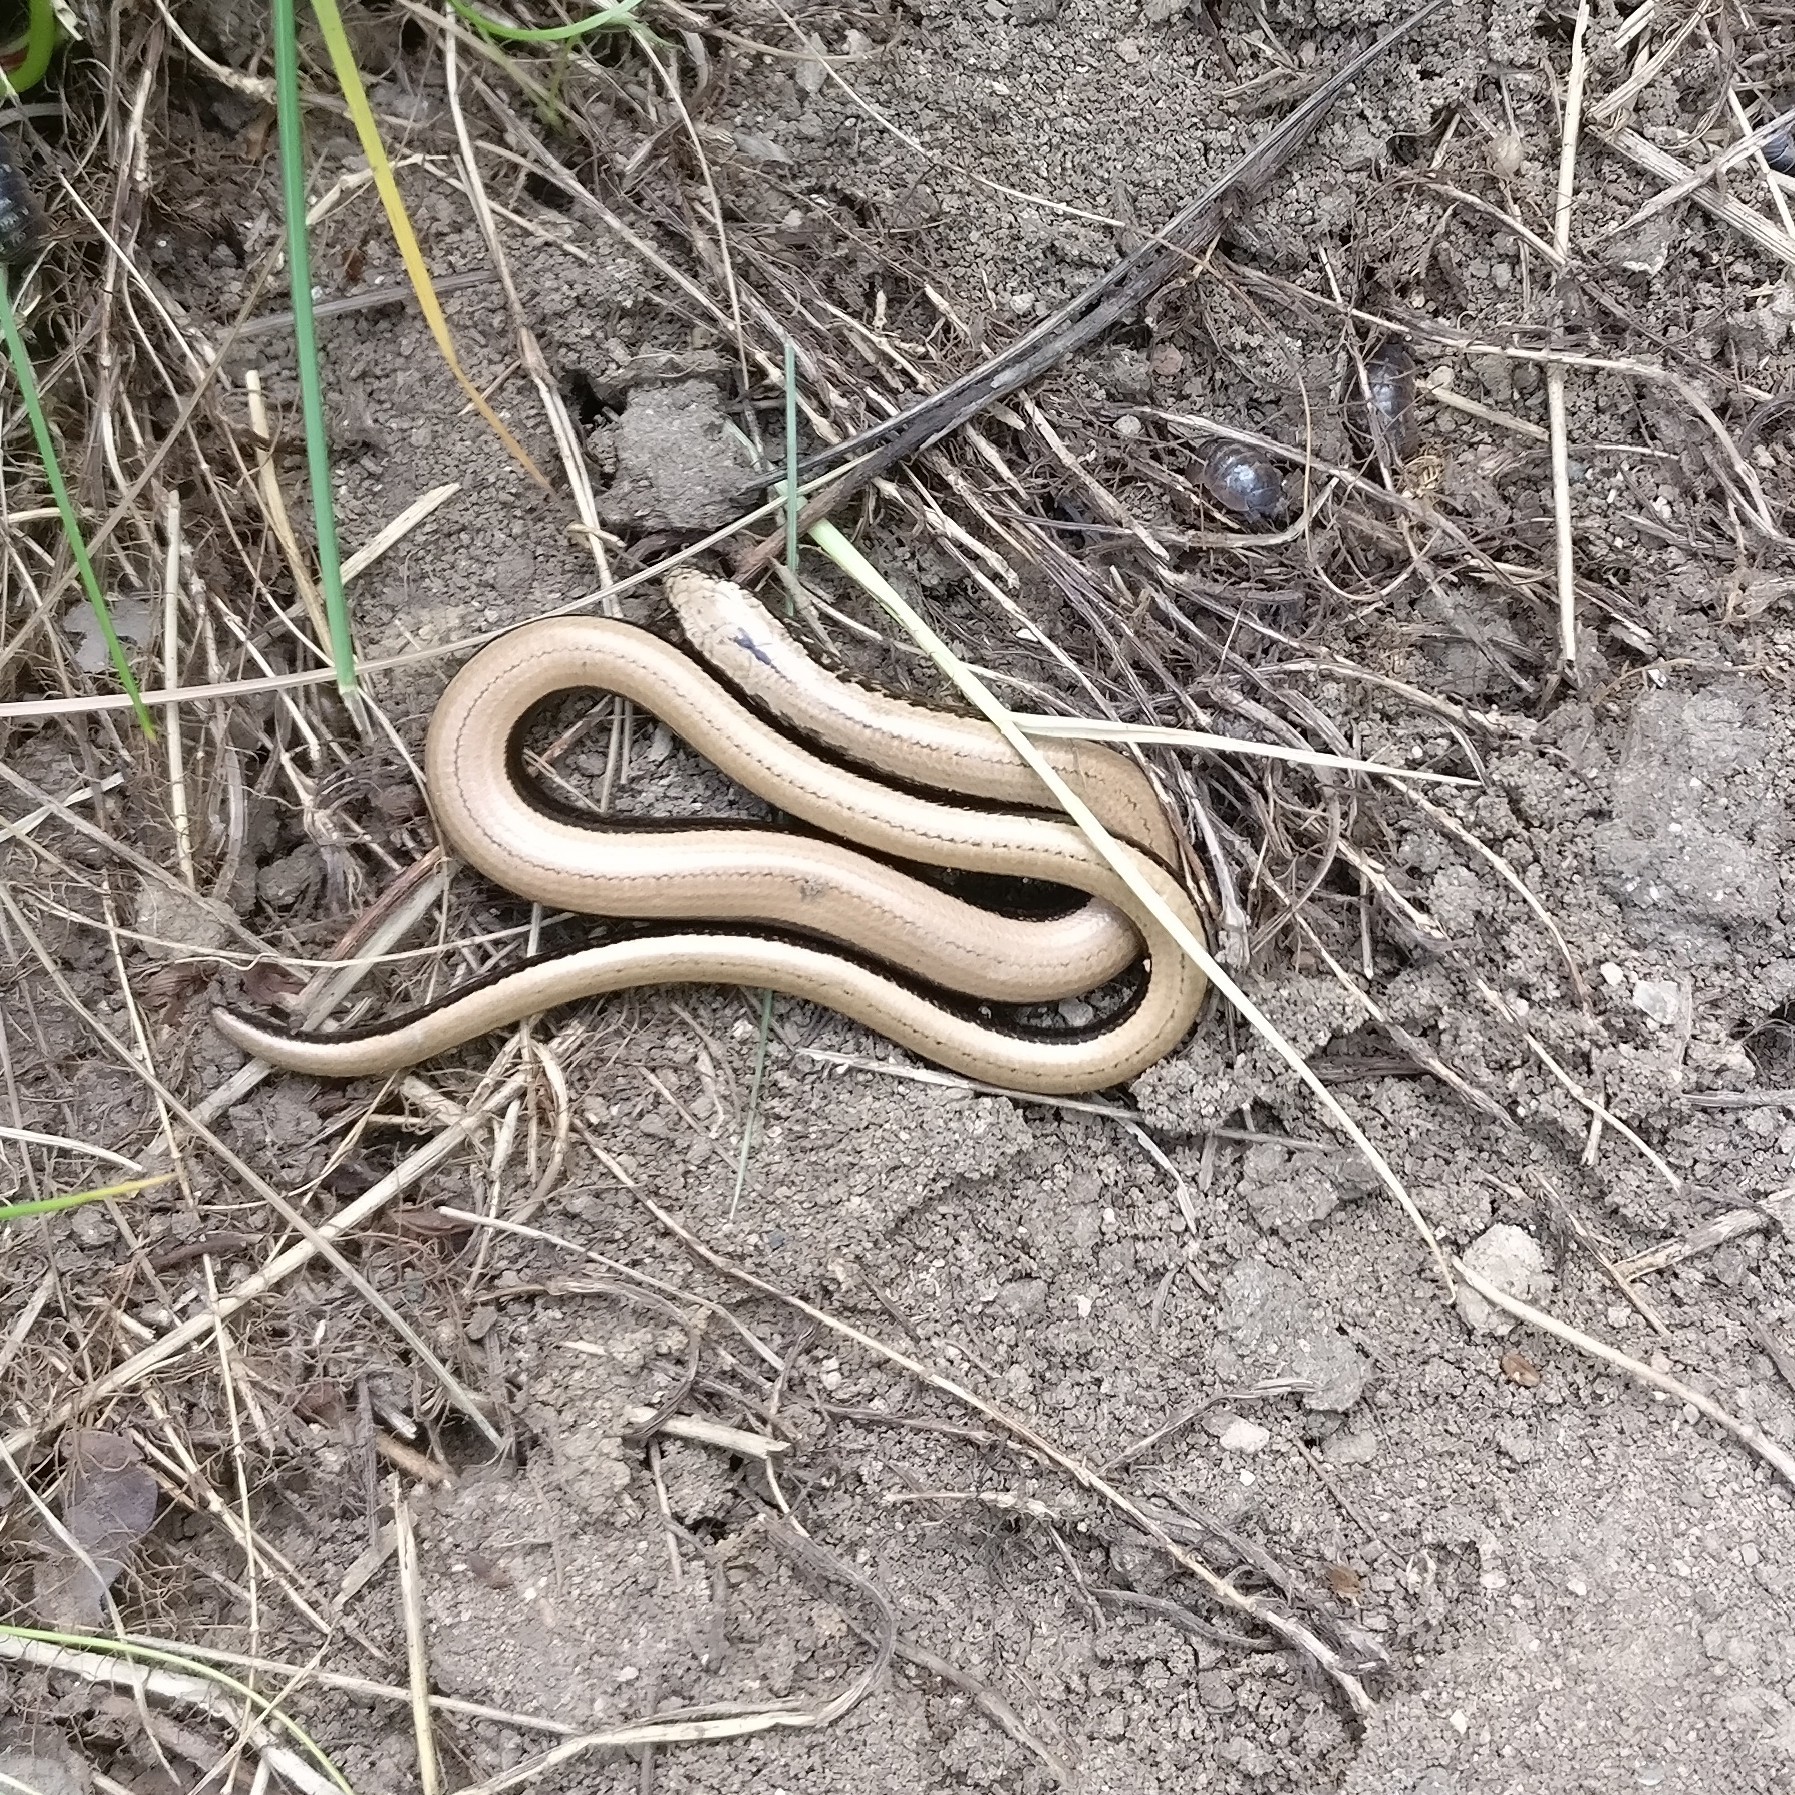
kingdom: Animalia
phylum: Chordata
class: Squamata
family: Anguidae
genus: Anguis
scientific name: Anguis fragilis
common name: Slow worm
